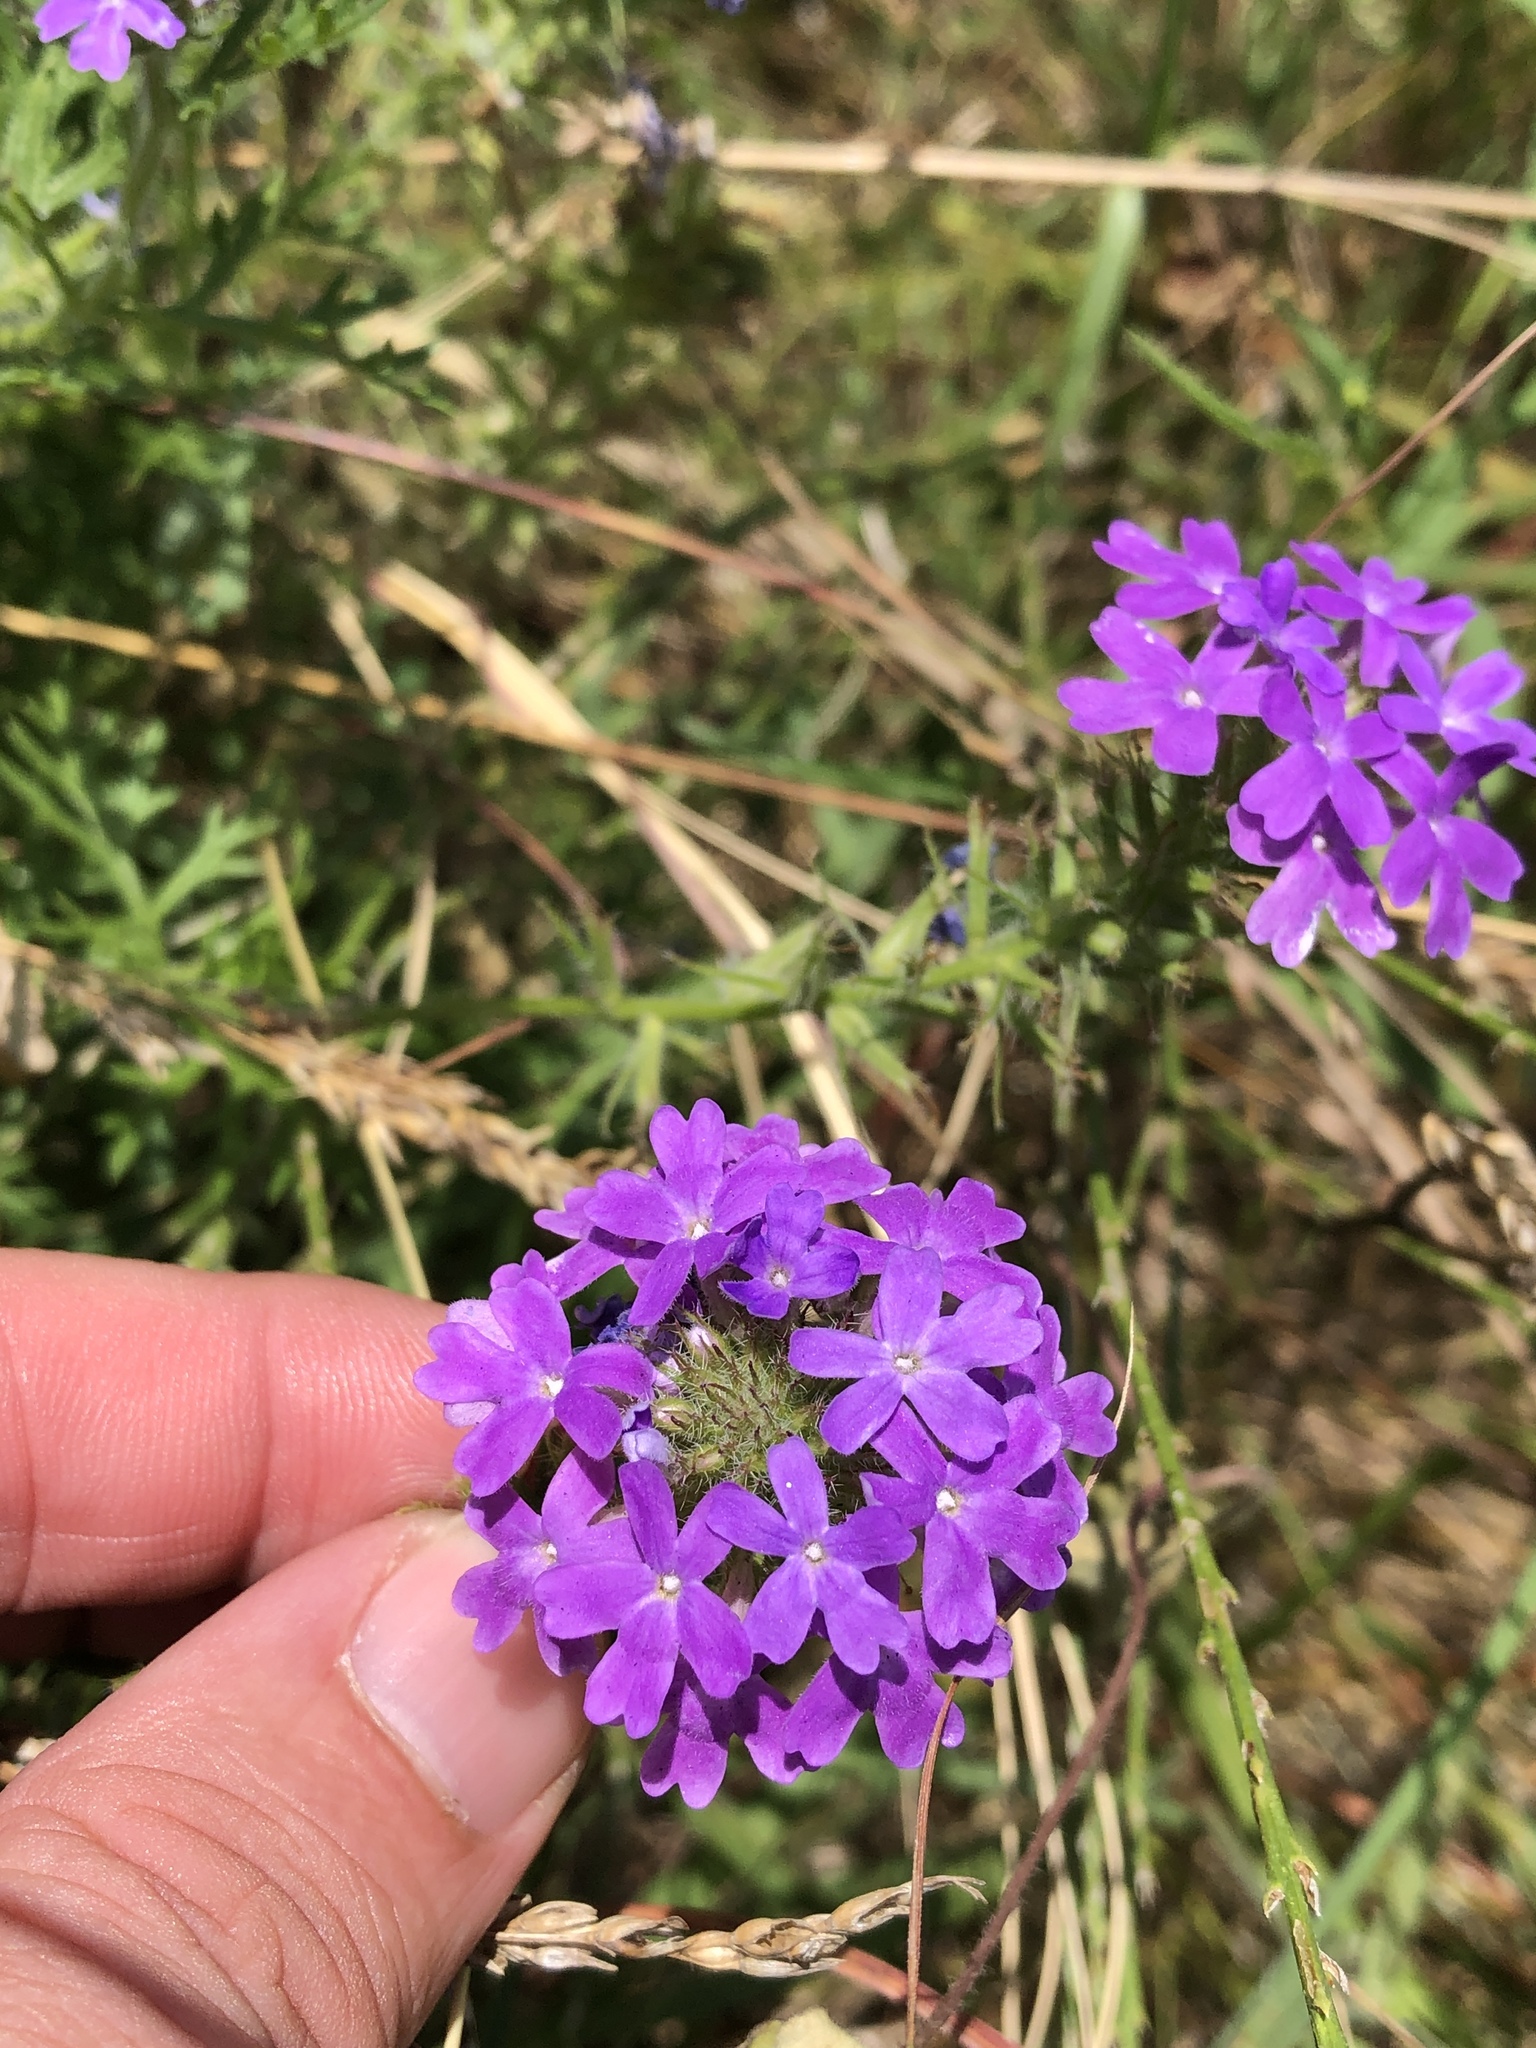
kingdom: Plantae
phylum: Tracheophyta
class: Magnoliopsida
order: Lamiales
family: Verbenaceae
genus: Verbena
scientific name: Verbena bipinnatifida
